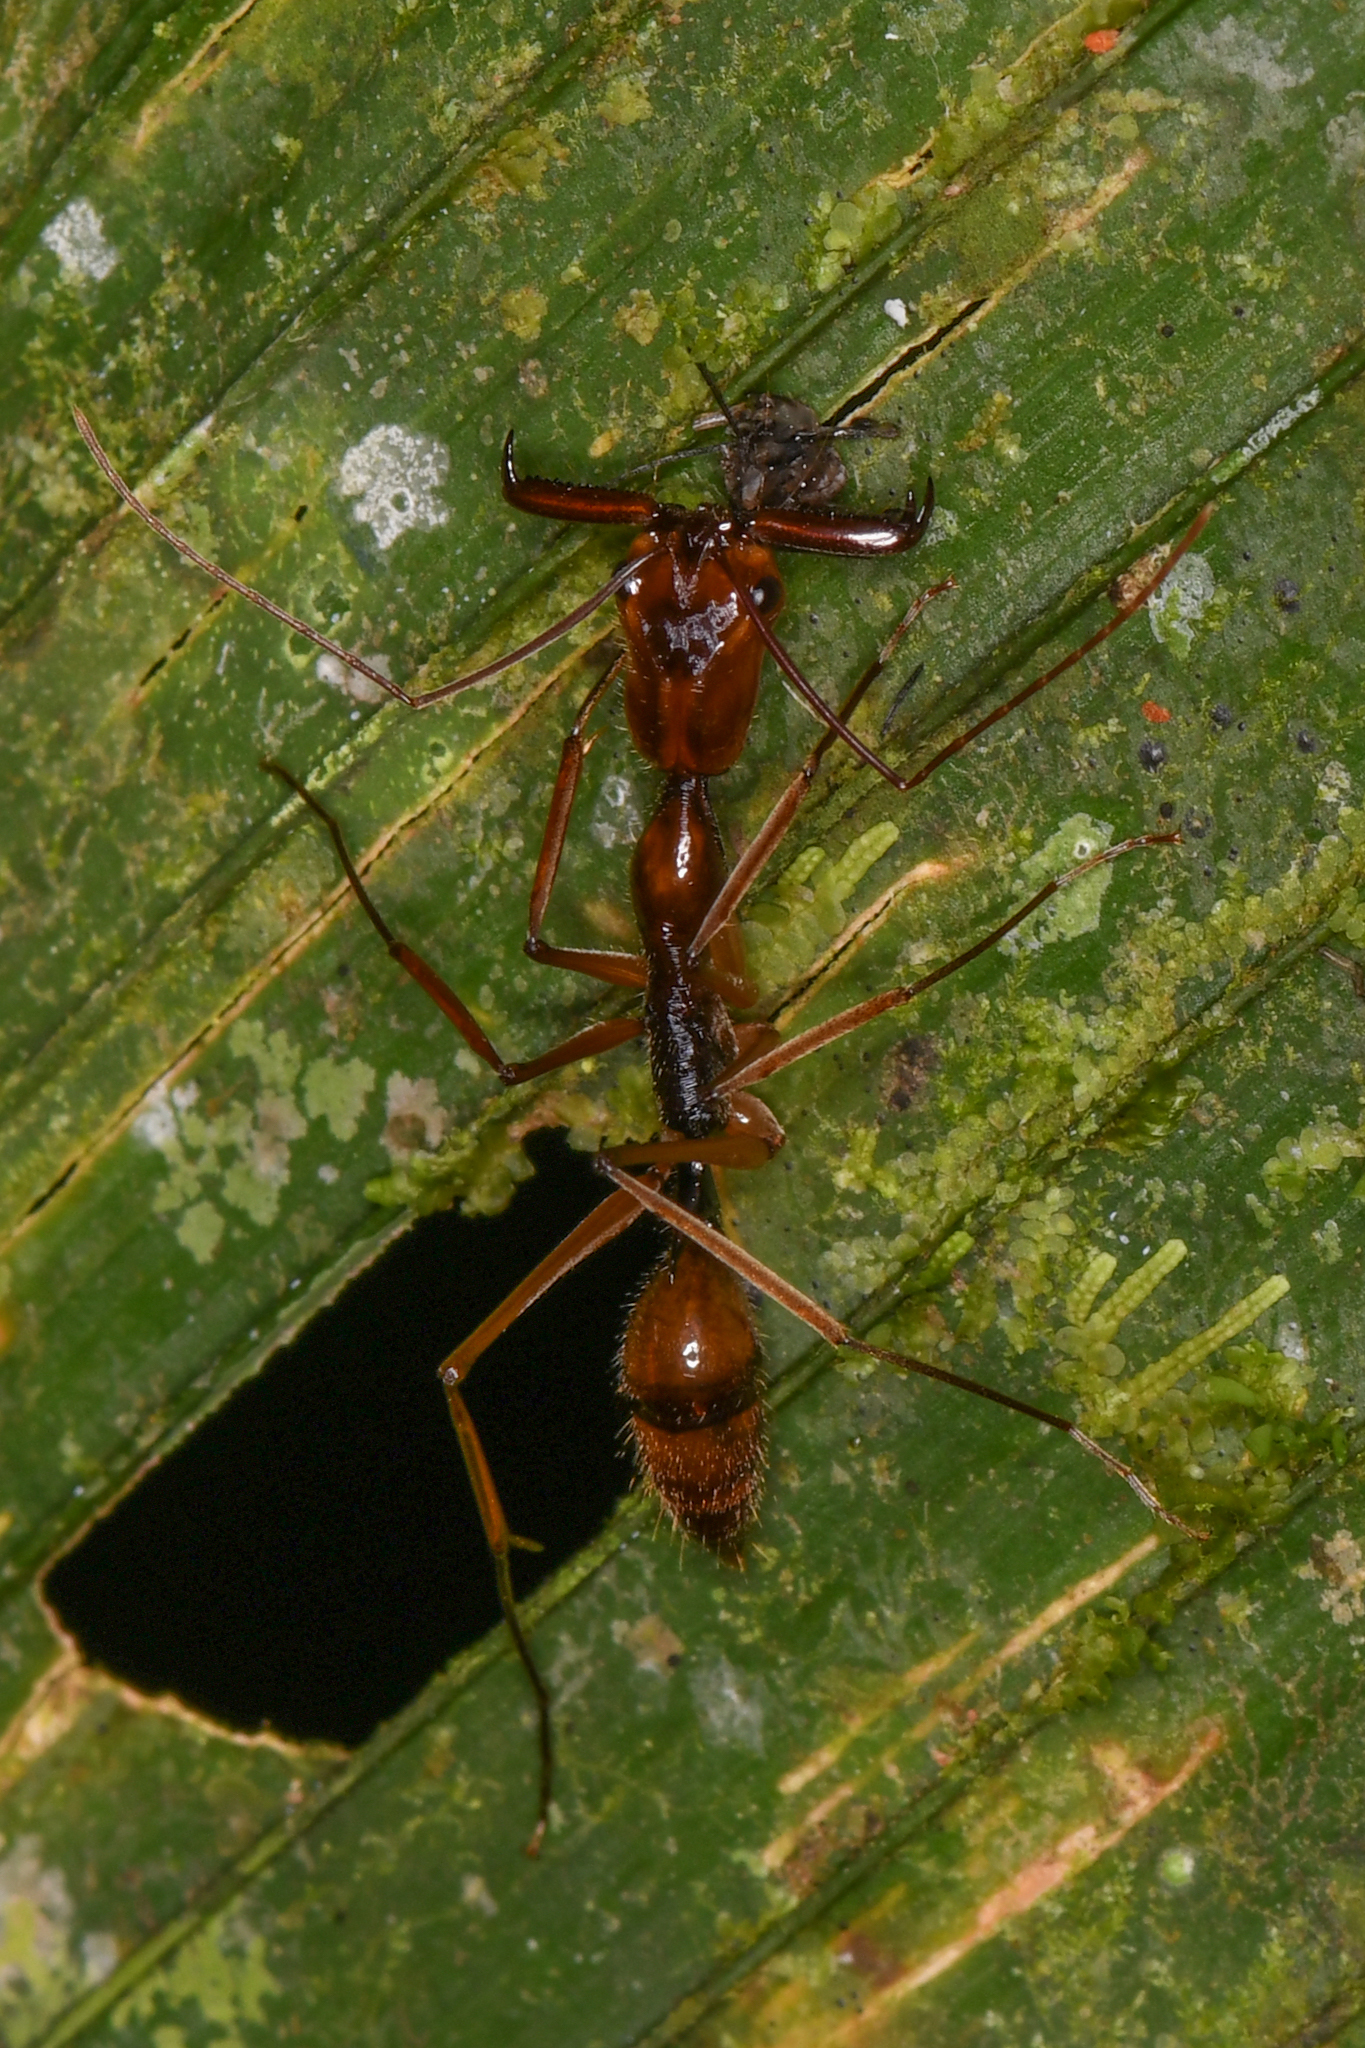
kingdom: Animalia
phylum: Arthropoda
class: Insecta
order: Hymenoptera
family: Formicidae
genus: Odontomachus
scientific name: Odontomachus hastatus
